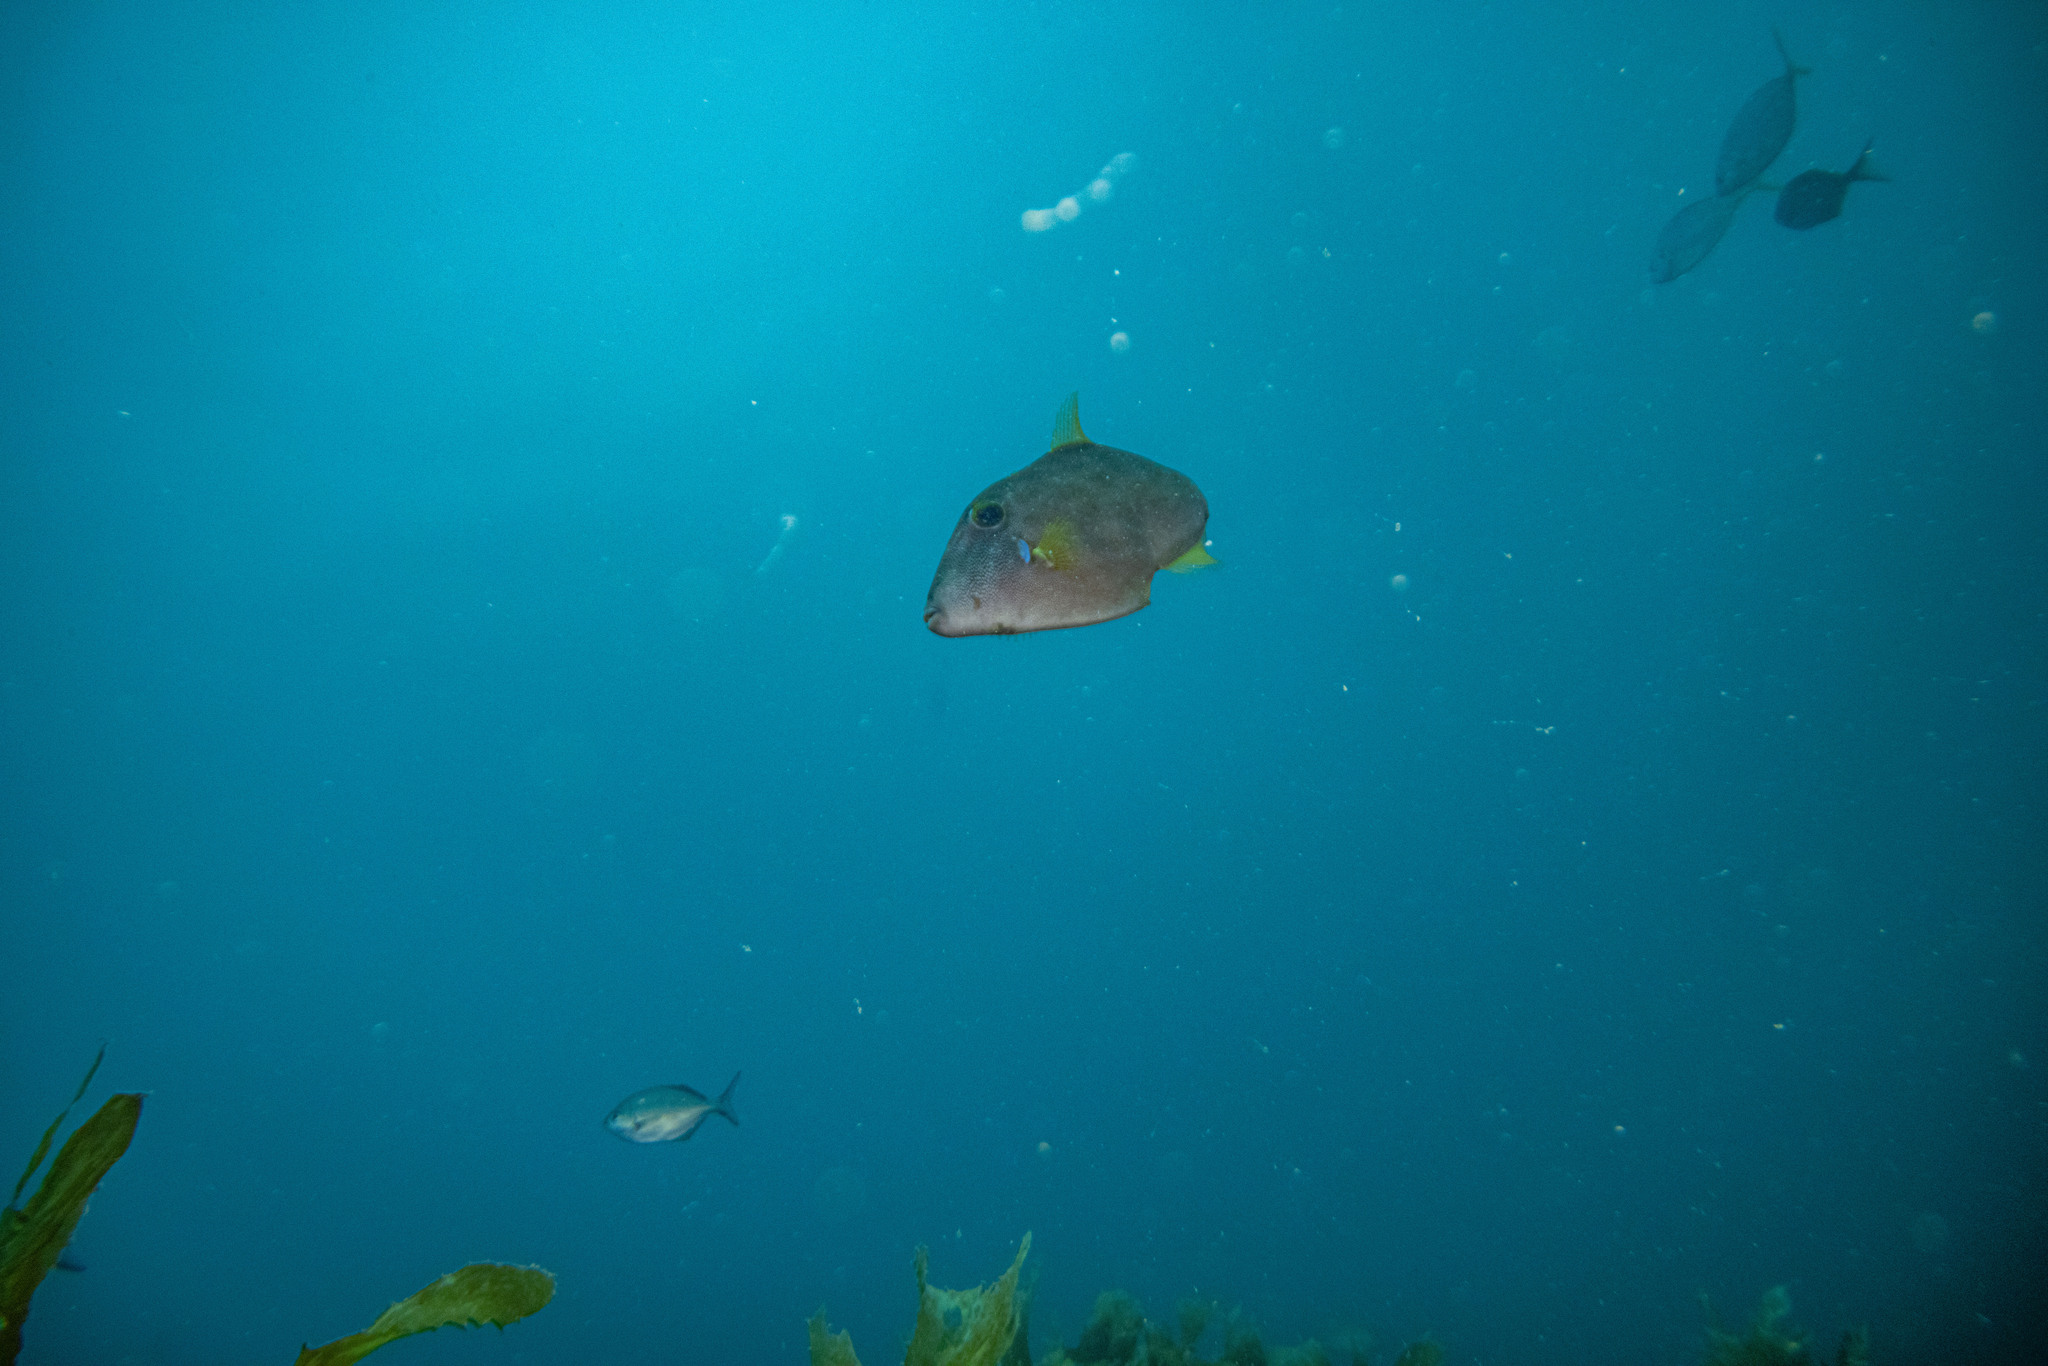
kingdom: Animalia
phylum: Chordata
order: Tetraodontiformes
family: Monacanthidae
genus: Meuschenia
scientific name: Meuschenia scaber
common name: Cosmopolitan leatherjacket
